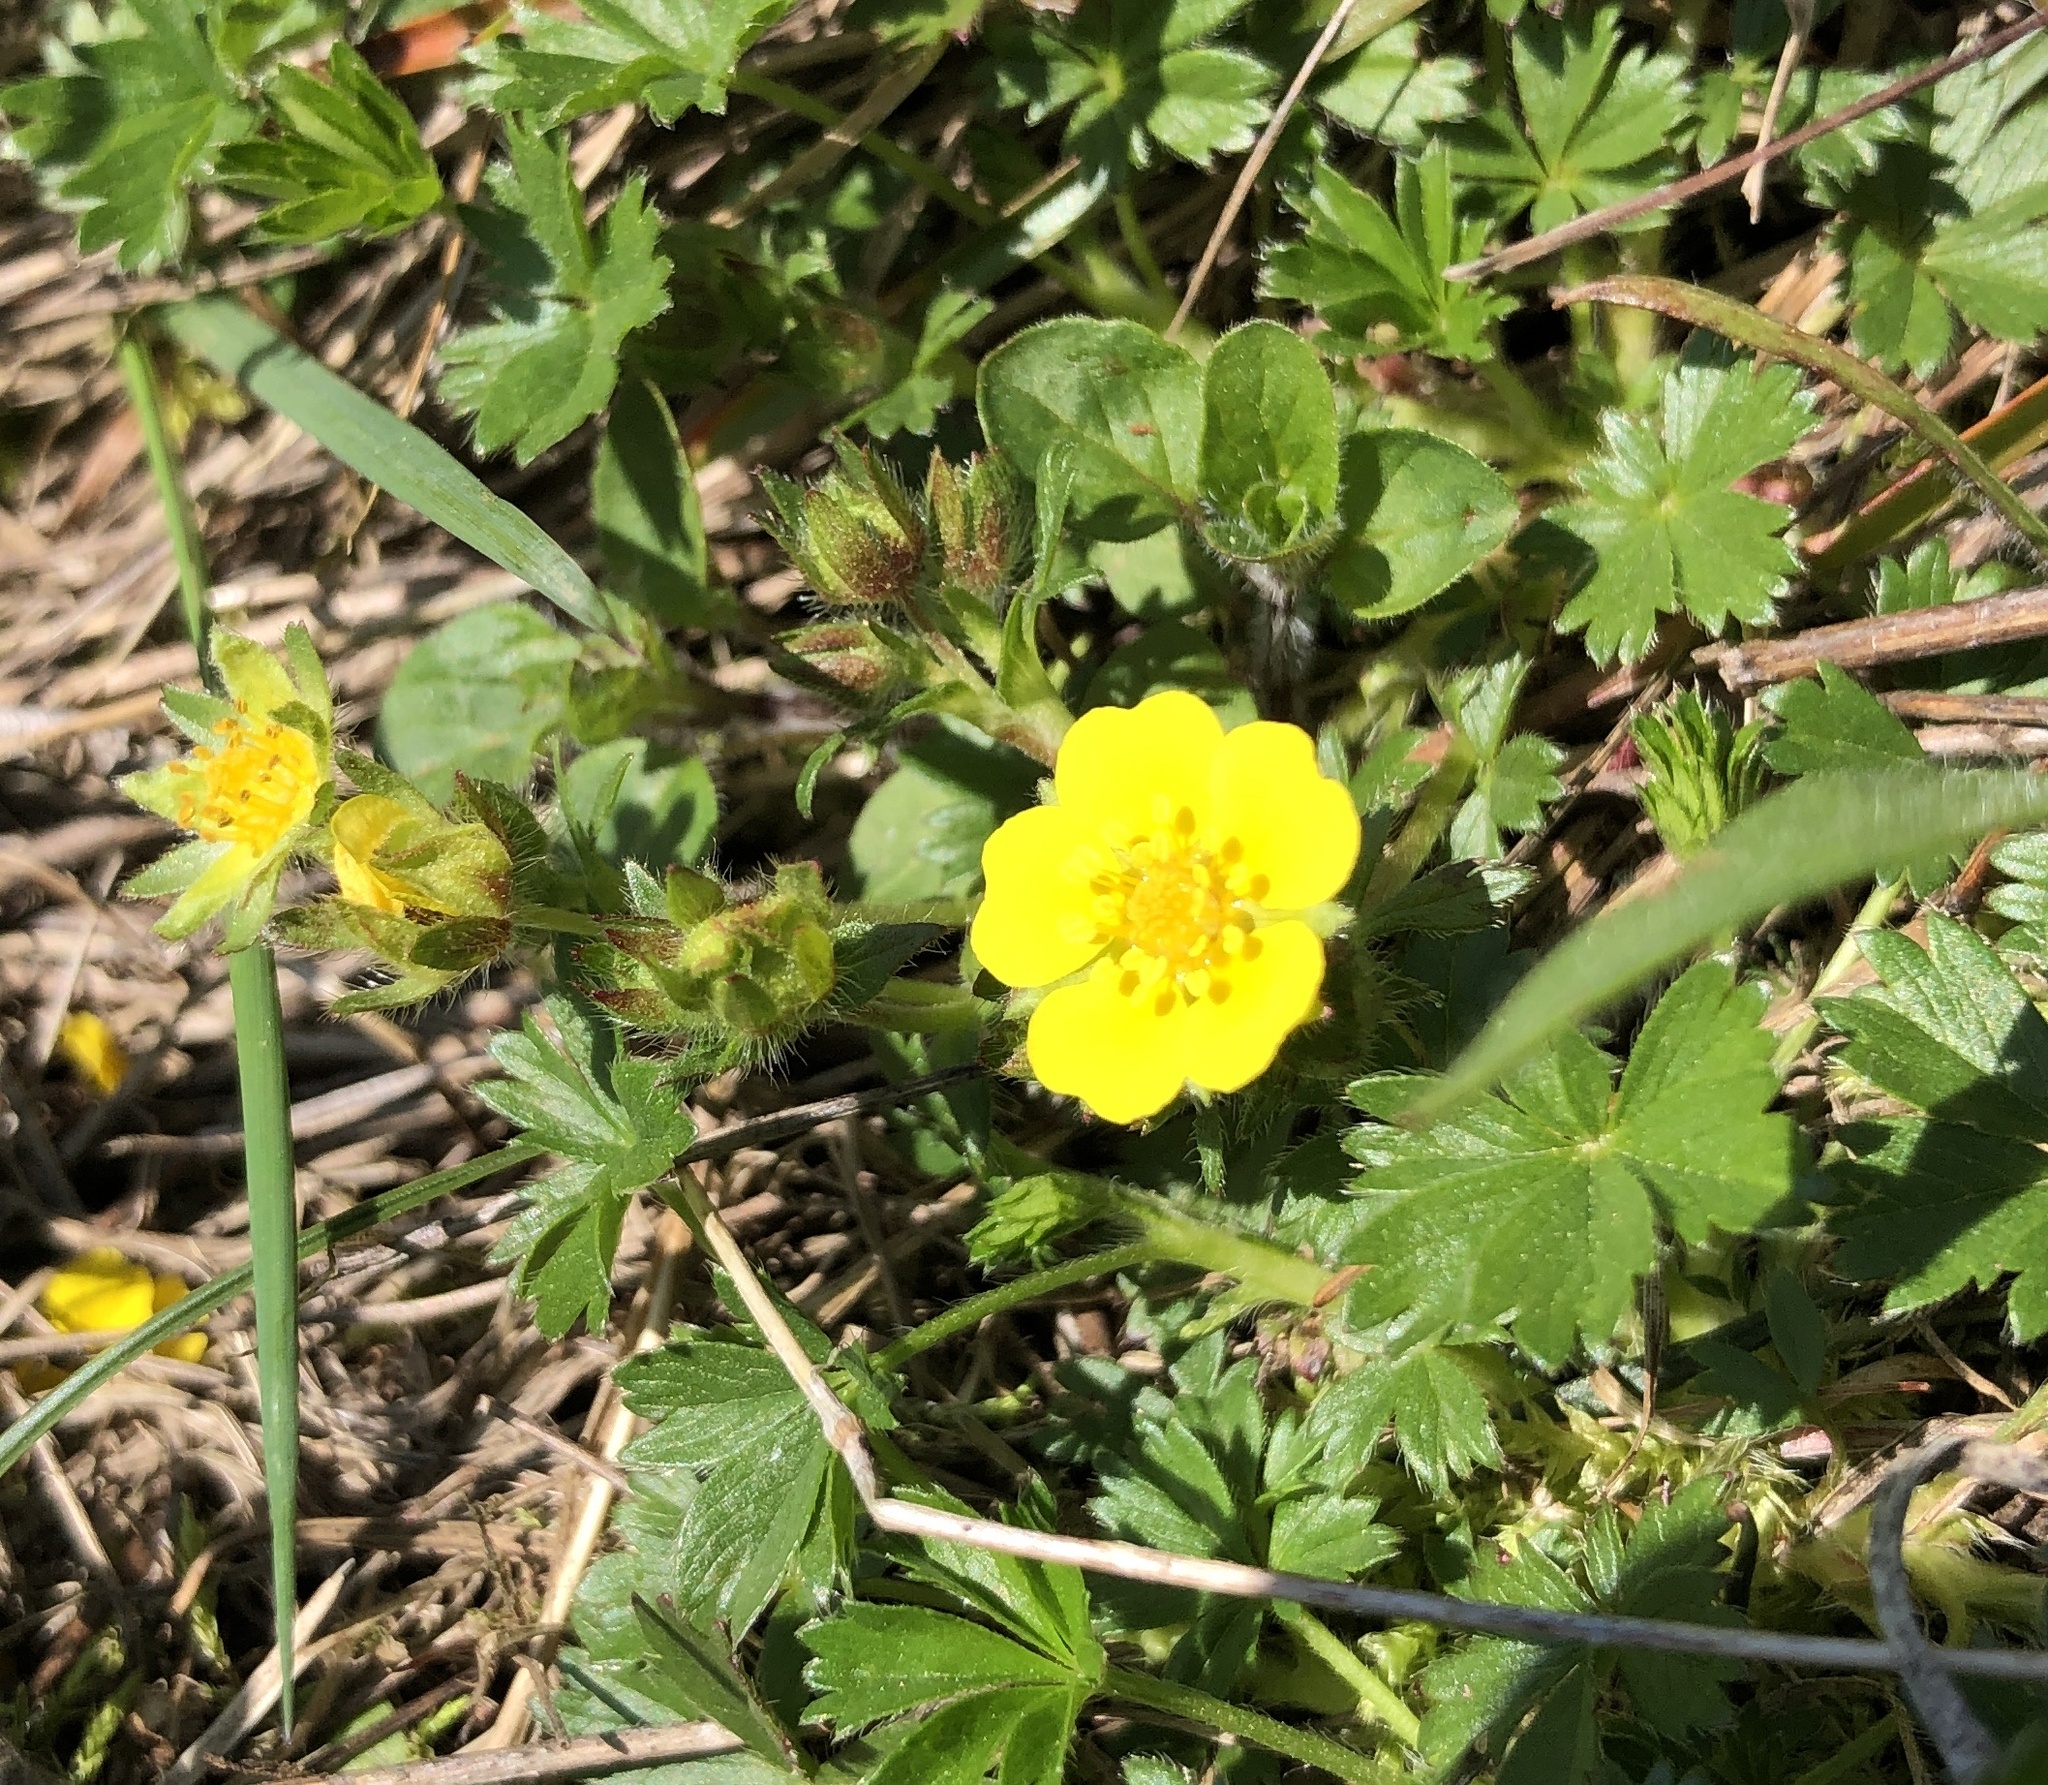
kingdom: Plantae
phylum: Tracheophyta
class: Magnoliopsida
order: Rosales
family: Rosaceae
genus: Potentilla
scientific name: Potentilla verna
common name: Spring cinquefoil
